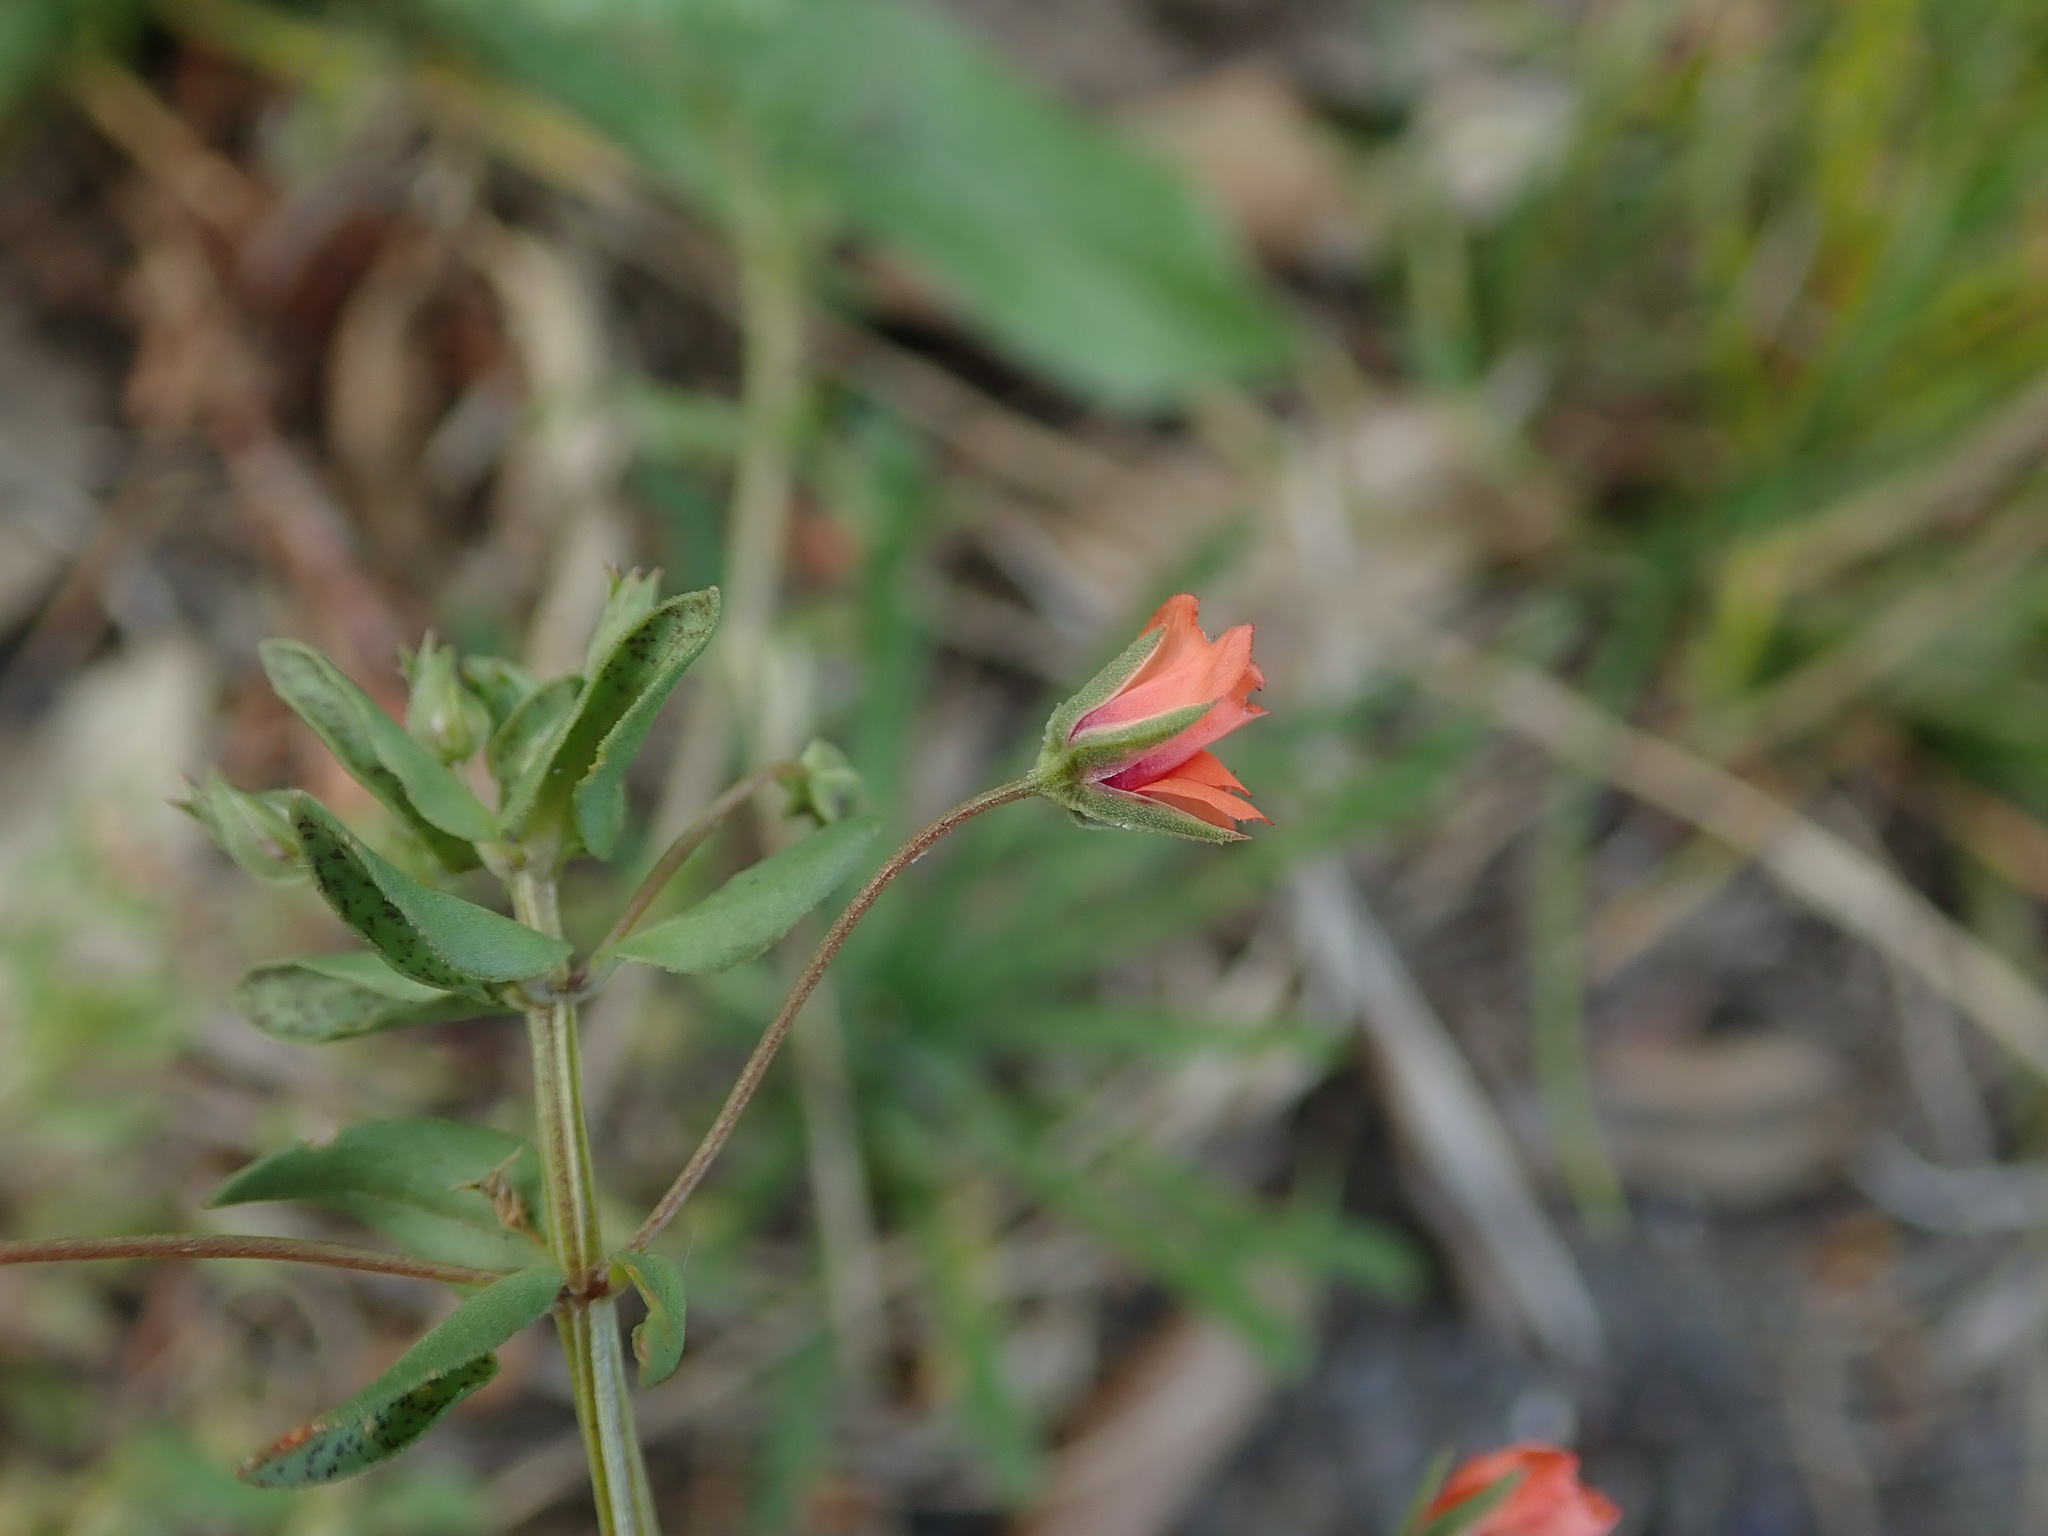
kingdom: Plantae
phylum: Tracheophyta
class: Magnoliopsida
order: Ericales
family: Primulaceae
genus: Lysimachia
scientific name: Lysimachia arvensis
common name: Scarlet pimpernel
